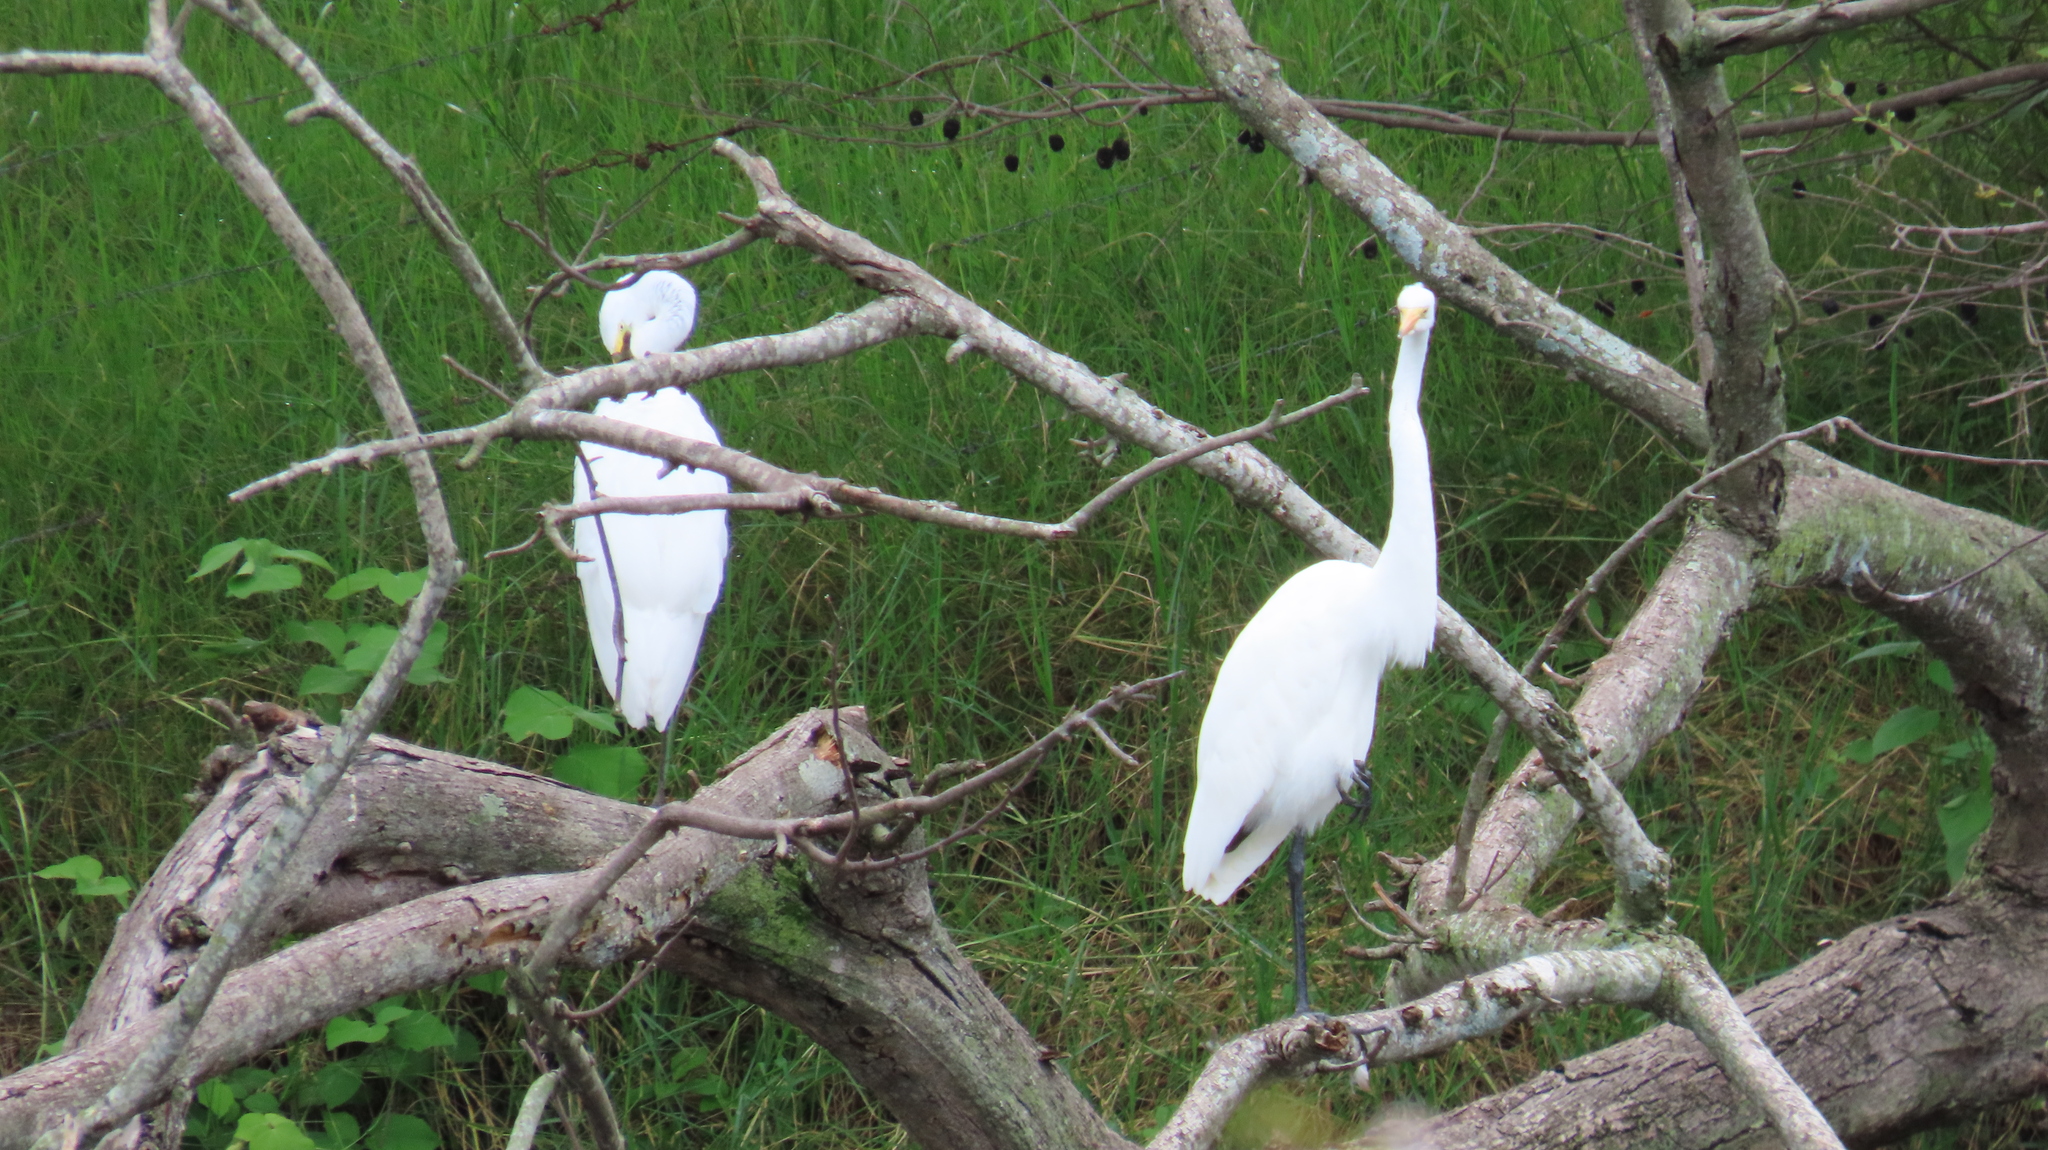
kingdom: Animalia
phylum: Chordata
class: Aves
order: Pelecaniformes
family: Ardeidae
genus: Ardea
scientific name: Ardea alba
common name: Great egret
